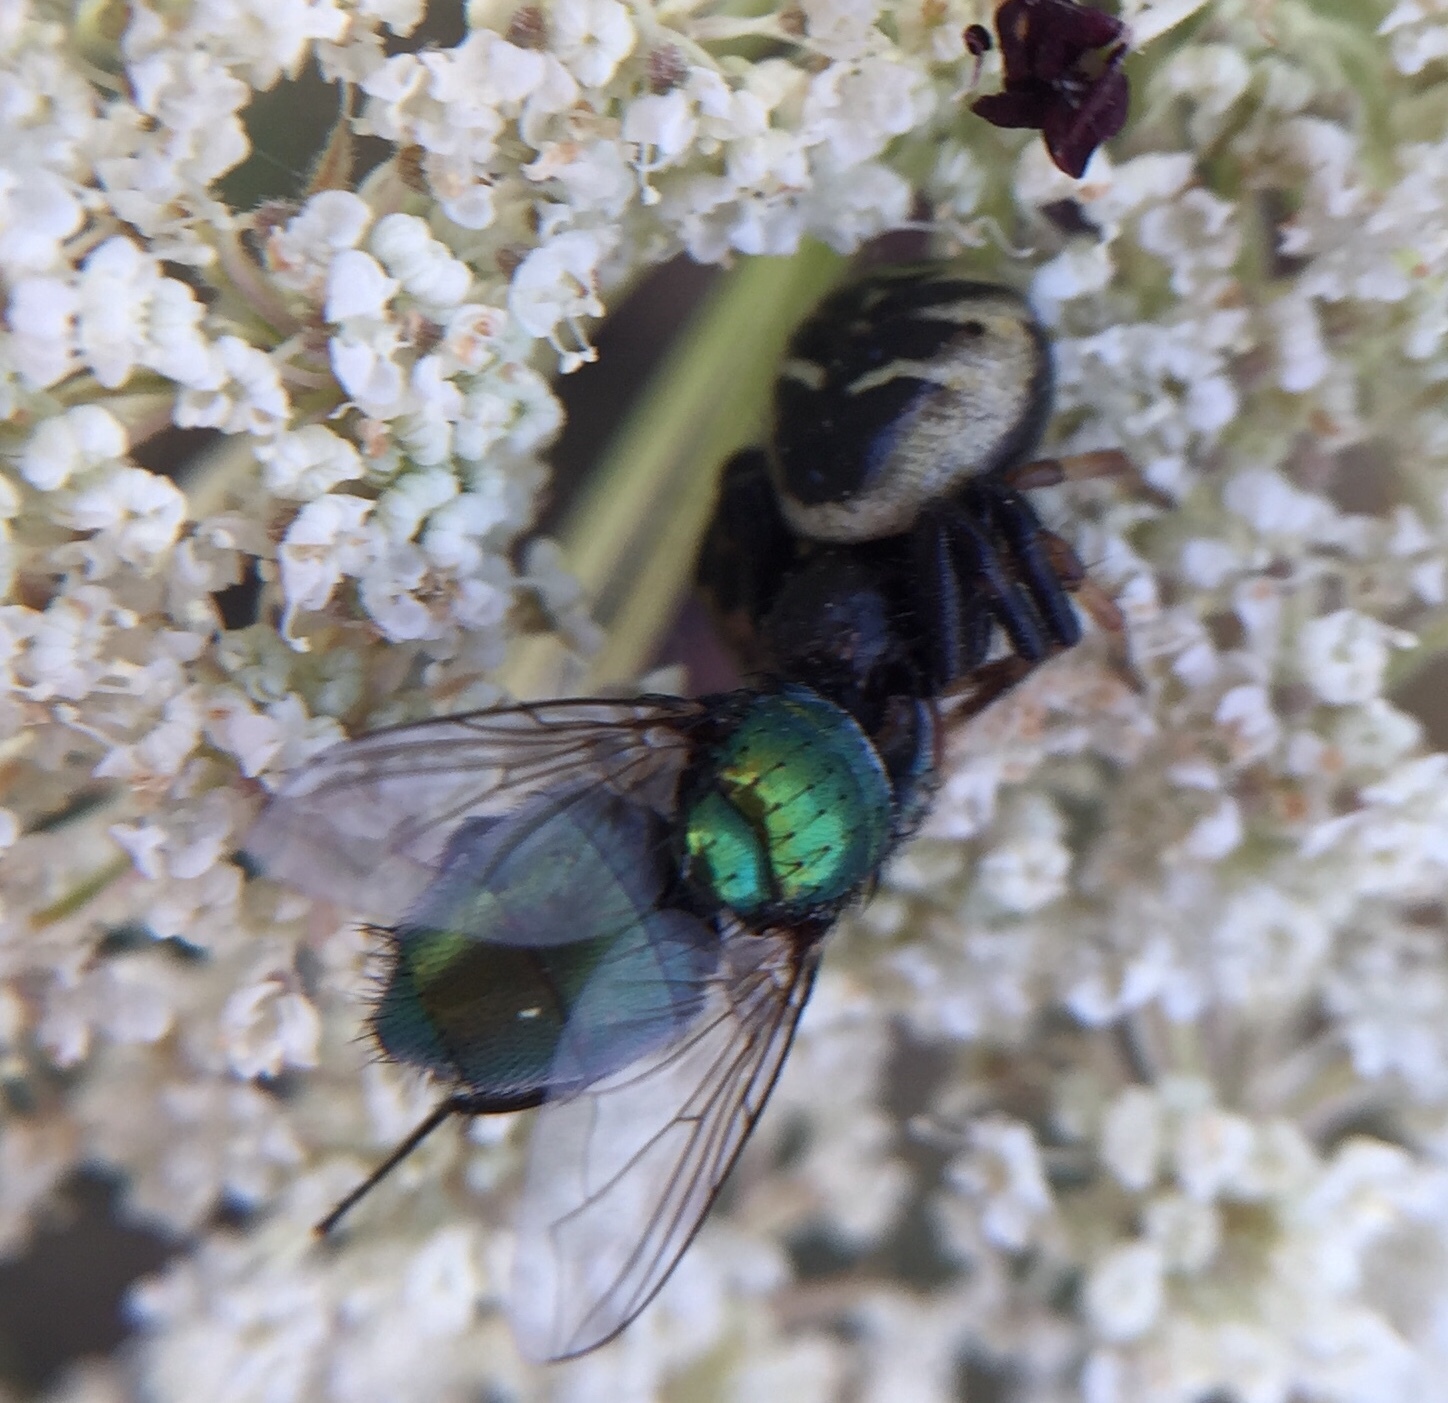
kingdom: Animalia
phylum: Arthropoda
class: Arachnida
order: Araneae
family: Thomisidae
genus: Synema
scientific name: Synema globosum
